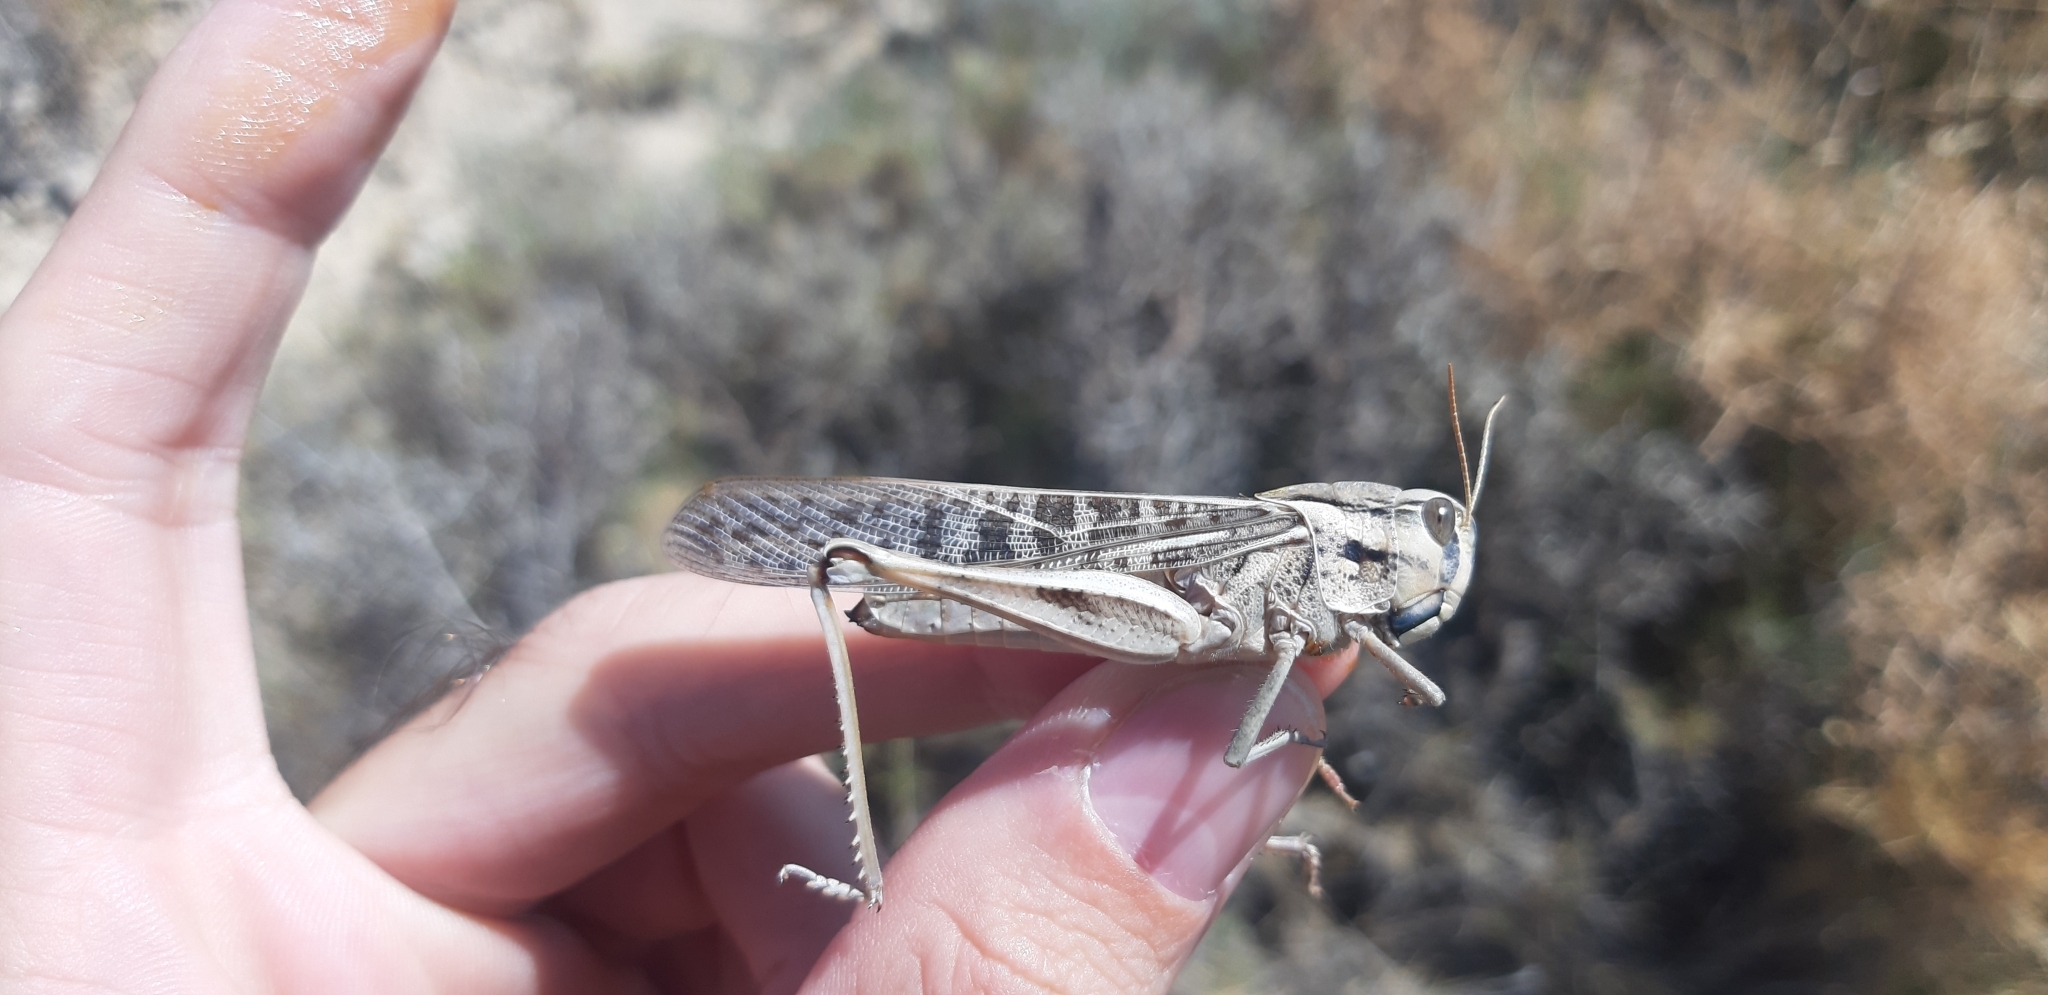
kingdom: Animalia
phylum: Arthropoda
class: Insecta
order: Orthoptera
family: Acrididae
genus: Locusta
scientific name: Locusta migratoria
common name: Migratory locust
